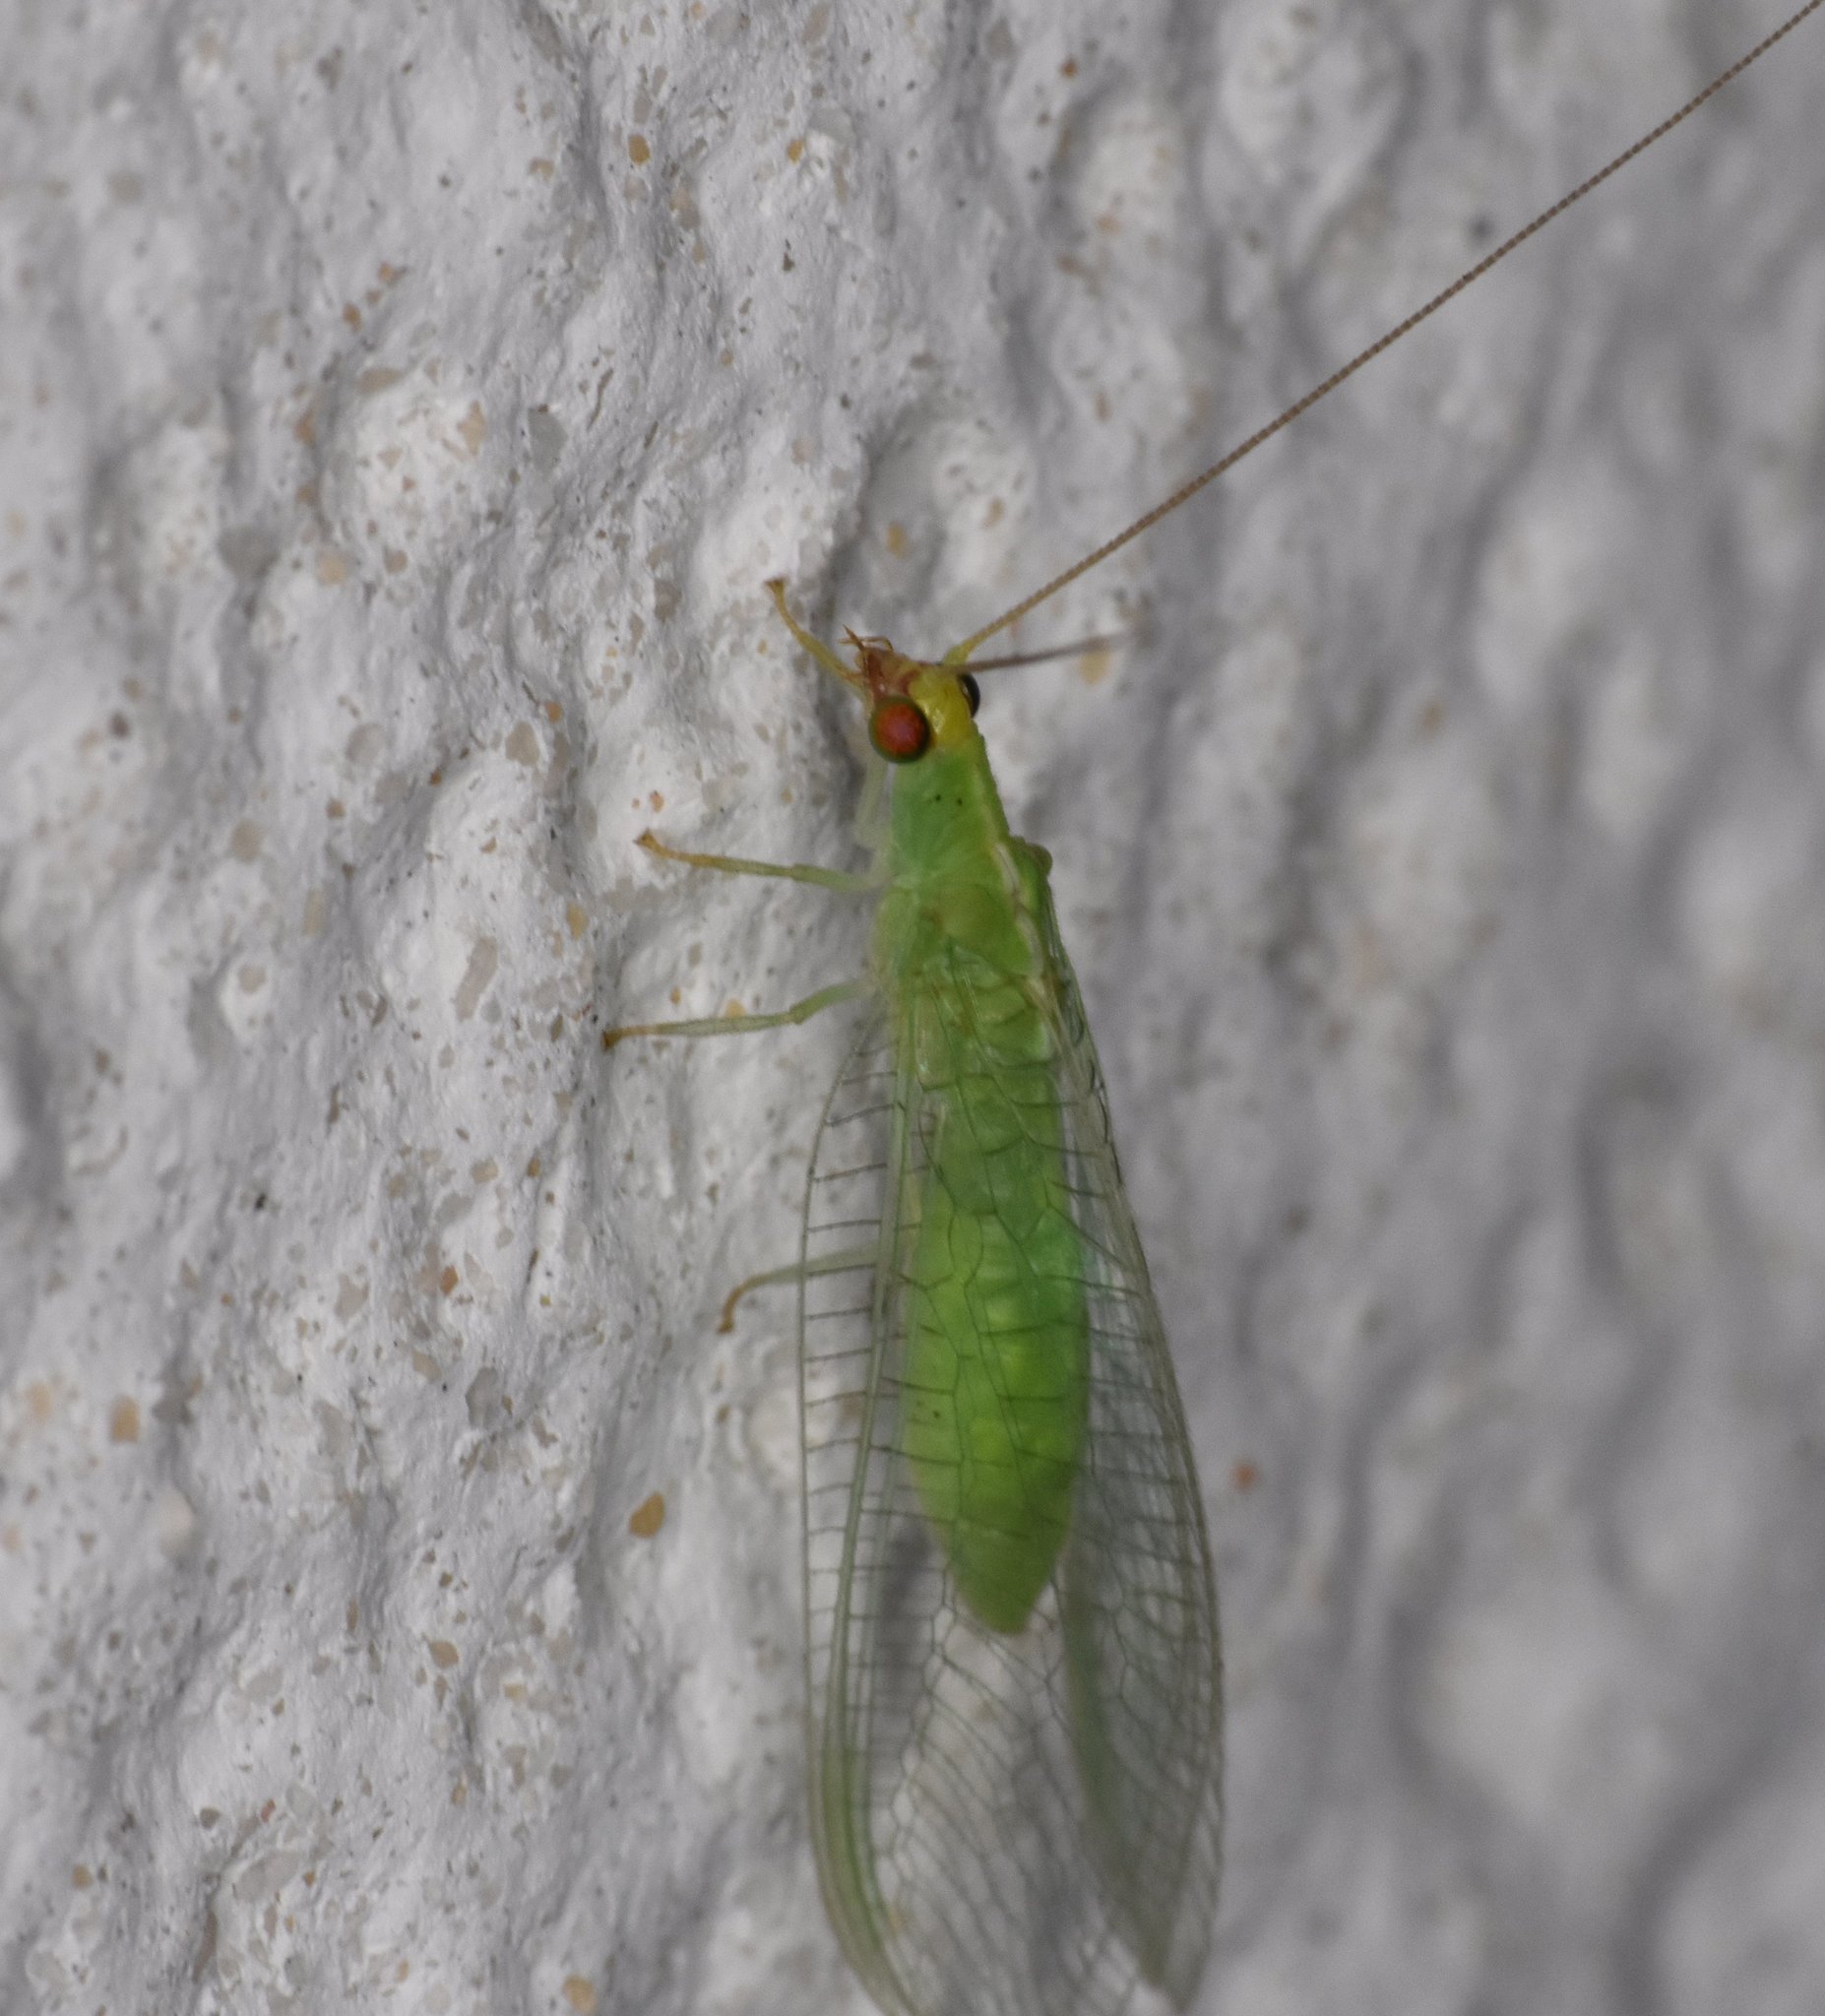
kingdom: Animalia
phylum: Arthropoda
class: Insecta
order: Neuroptera
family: Chrysopidae
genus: Chrysopodes
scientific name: Chrysopodes collaris
